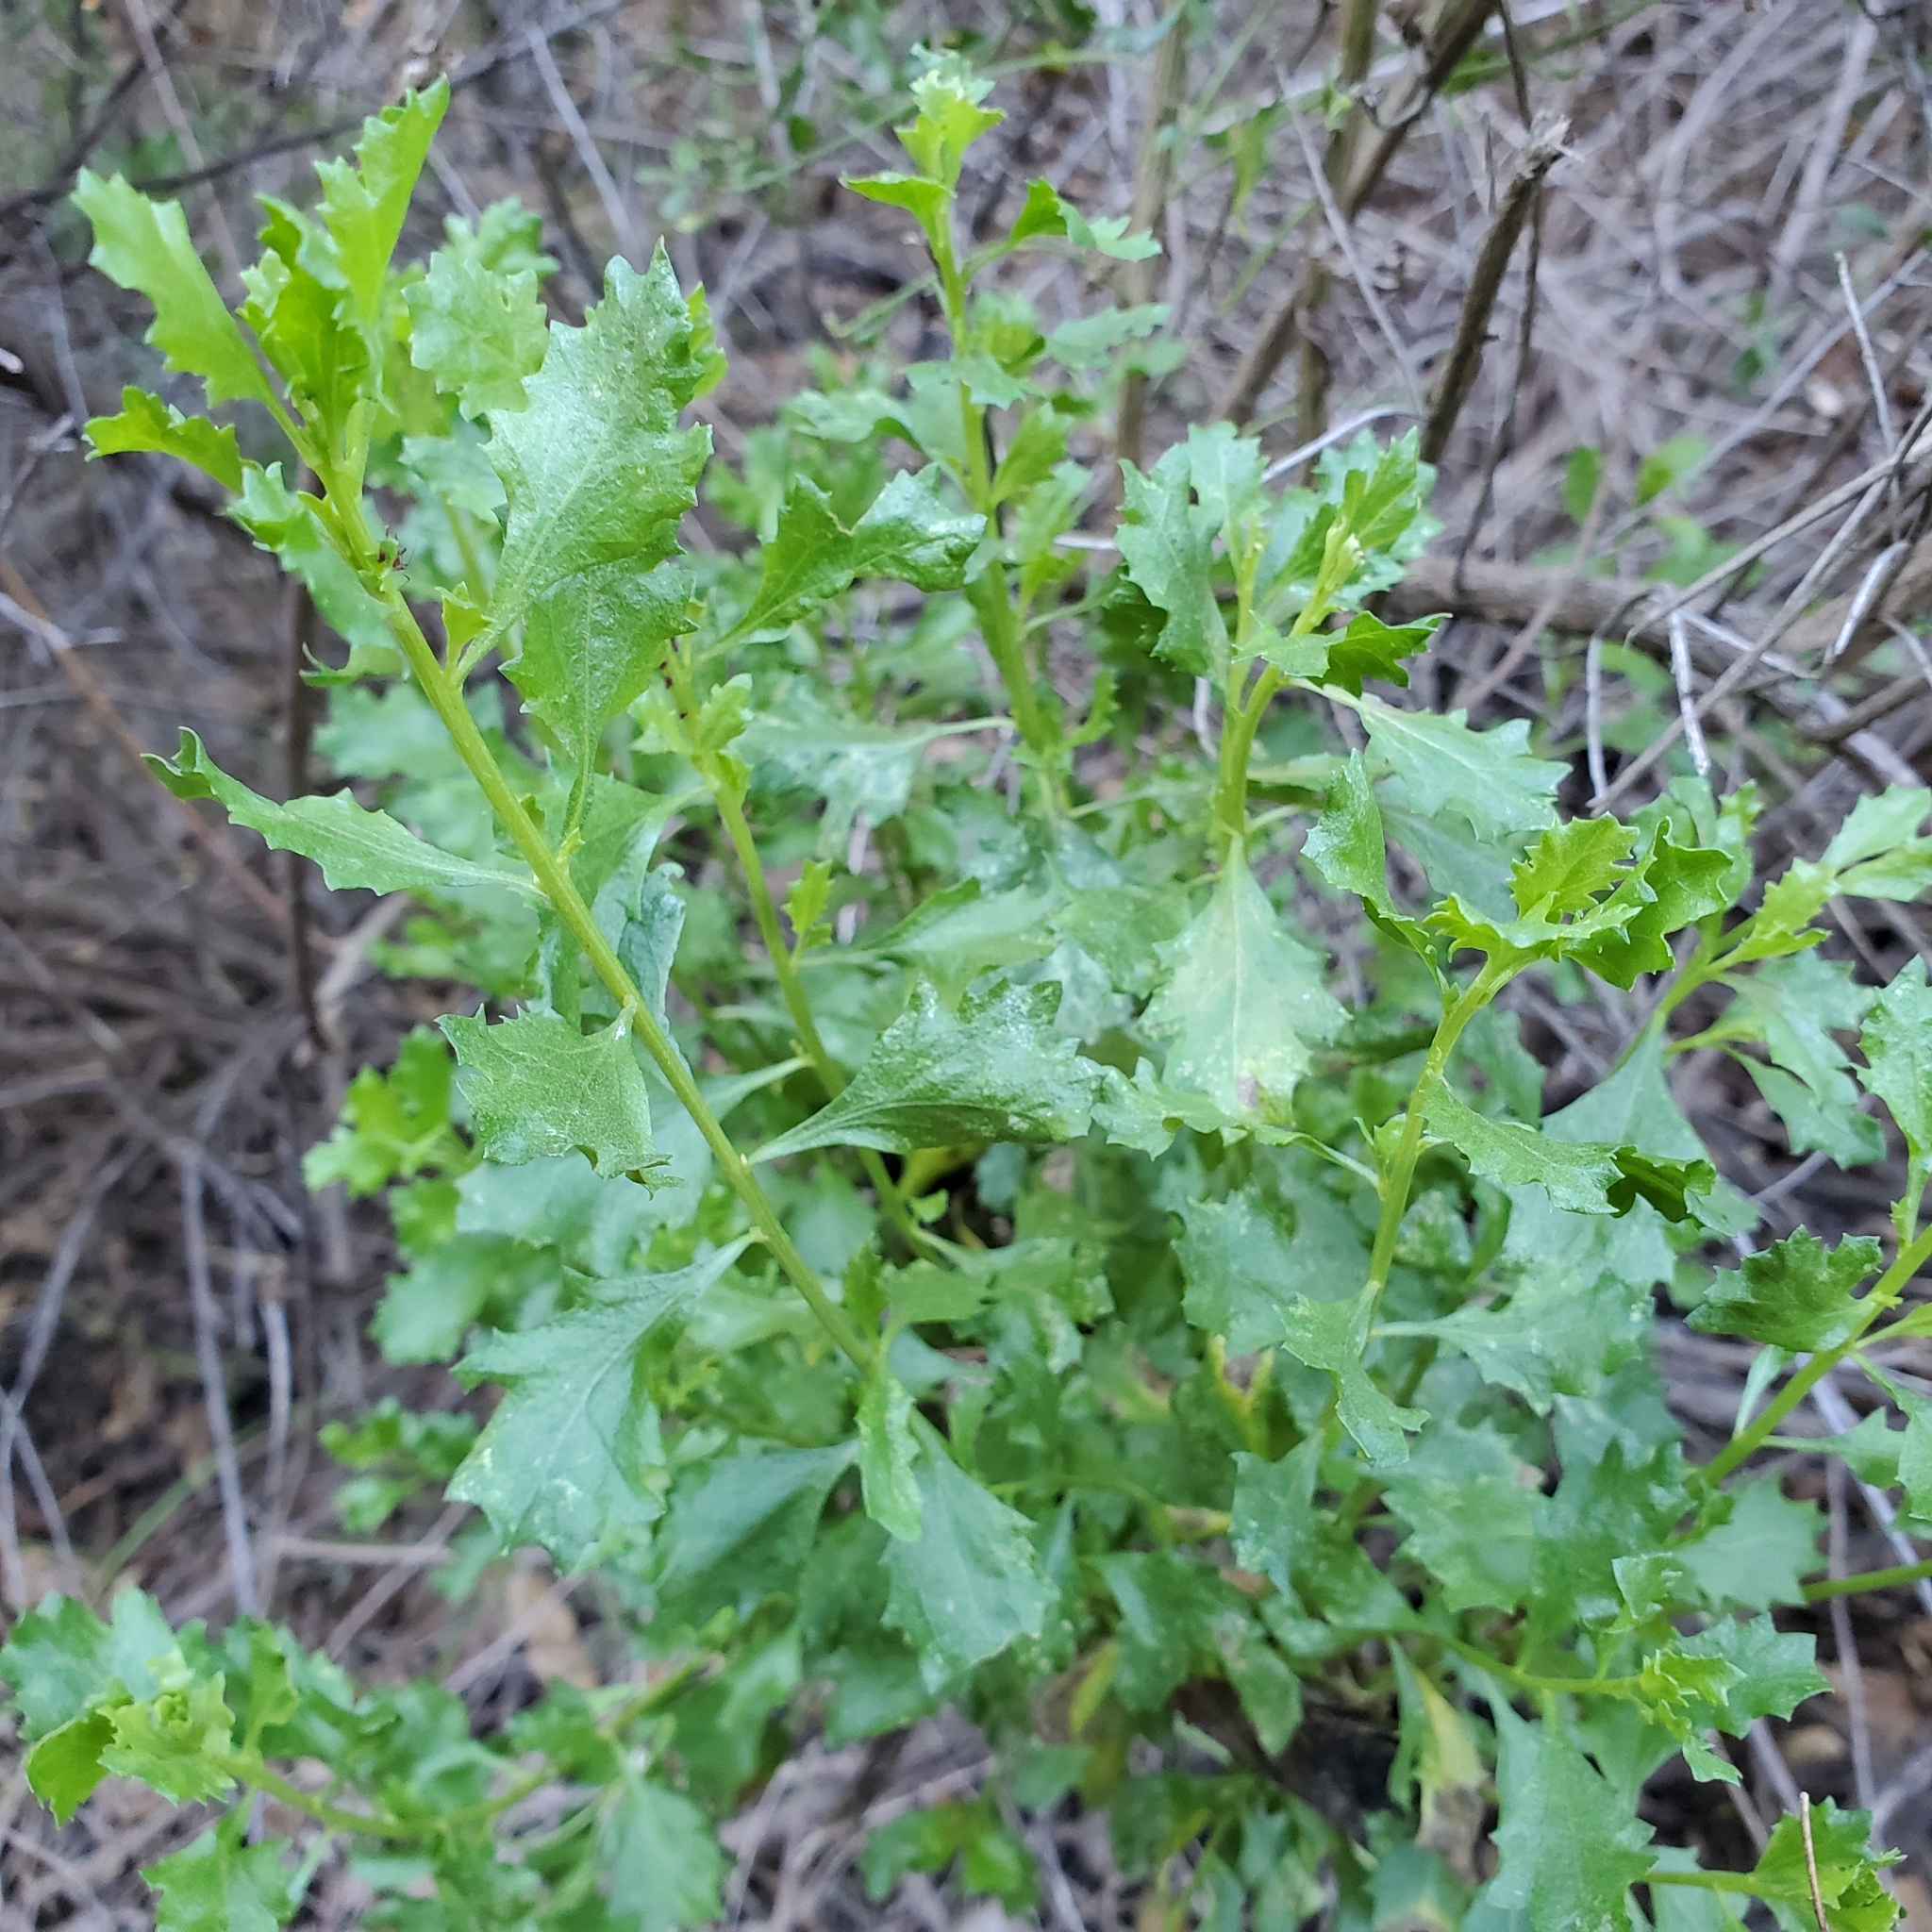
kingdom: Plantae
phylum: Tracheophyta
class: Magnoliopsida
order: Asterales
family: Asteraceae
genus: Baccharis
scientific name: Baccharis pilularis
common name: Coyotebrush
